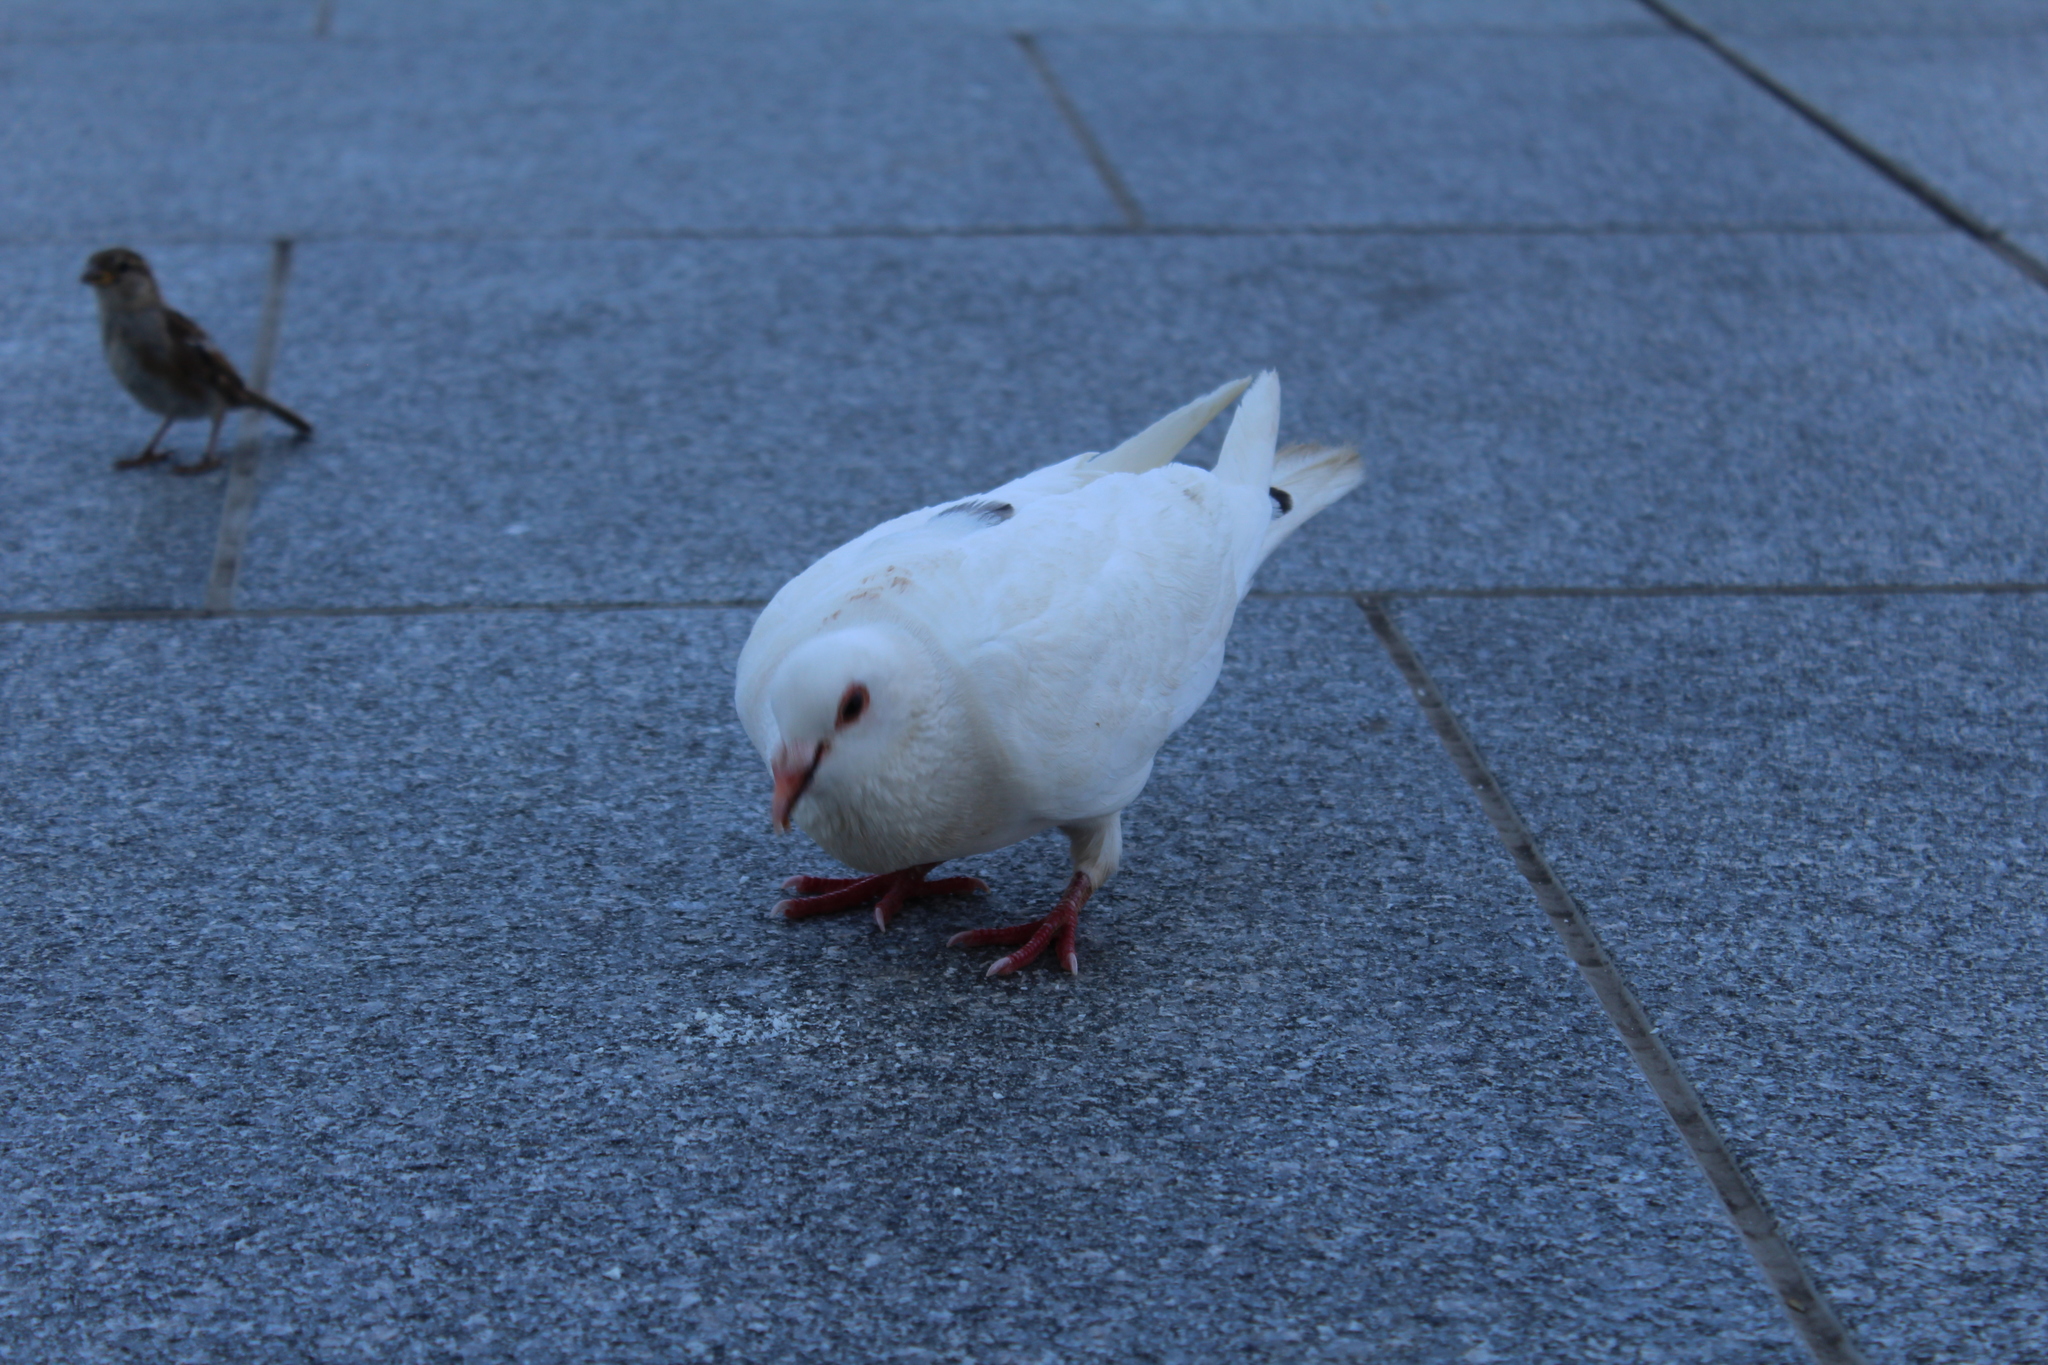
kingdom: Animalia
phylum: Chordata
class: Aves
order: Columbiformes
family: Columbidae
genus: Columba
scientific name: Columba livia
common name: Rock pigeon
